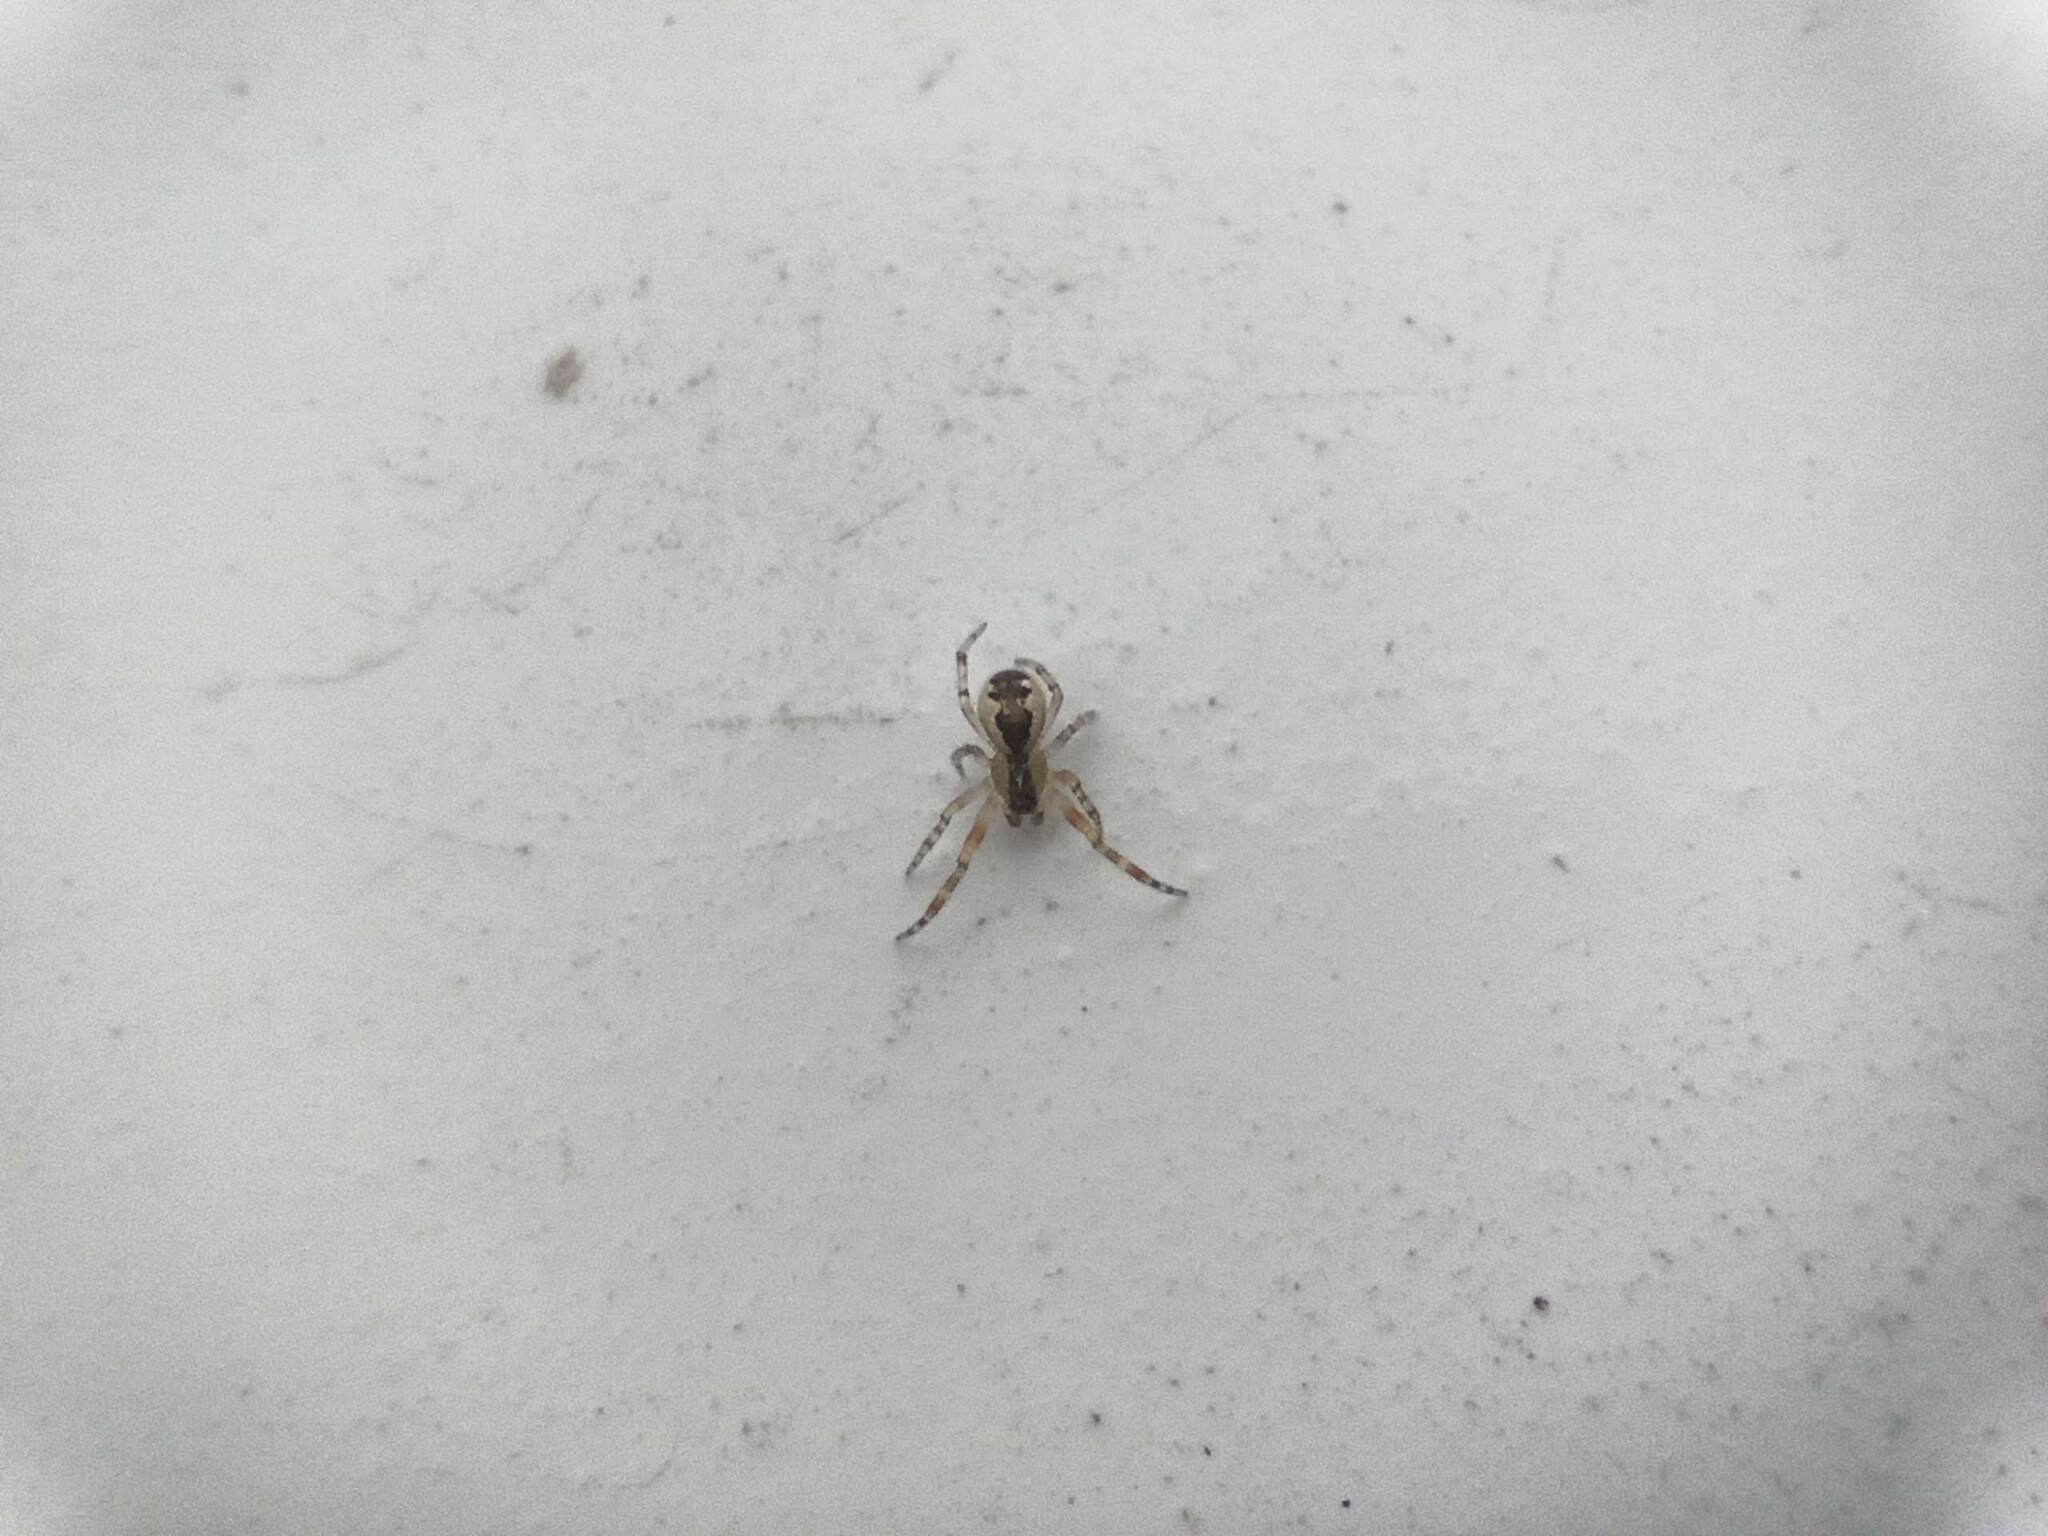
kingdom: Animalia
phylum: Arthropoda
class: Arachnida
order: Araneae
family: Theridiidae
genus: Anelosimus
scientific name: Anelosimus vittatus
